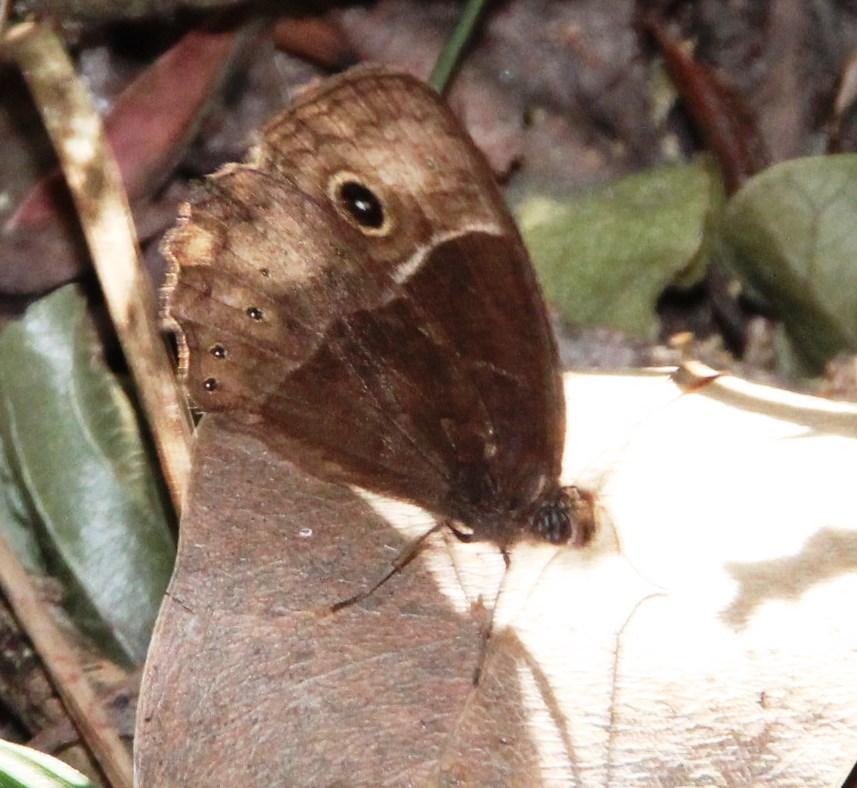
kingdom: Animalia
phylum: Arthropoda
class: Insecta
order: Lepidoptera
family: Nymphalidae
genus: Mycalesis
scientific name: Mycalesis rhacotis
